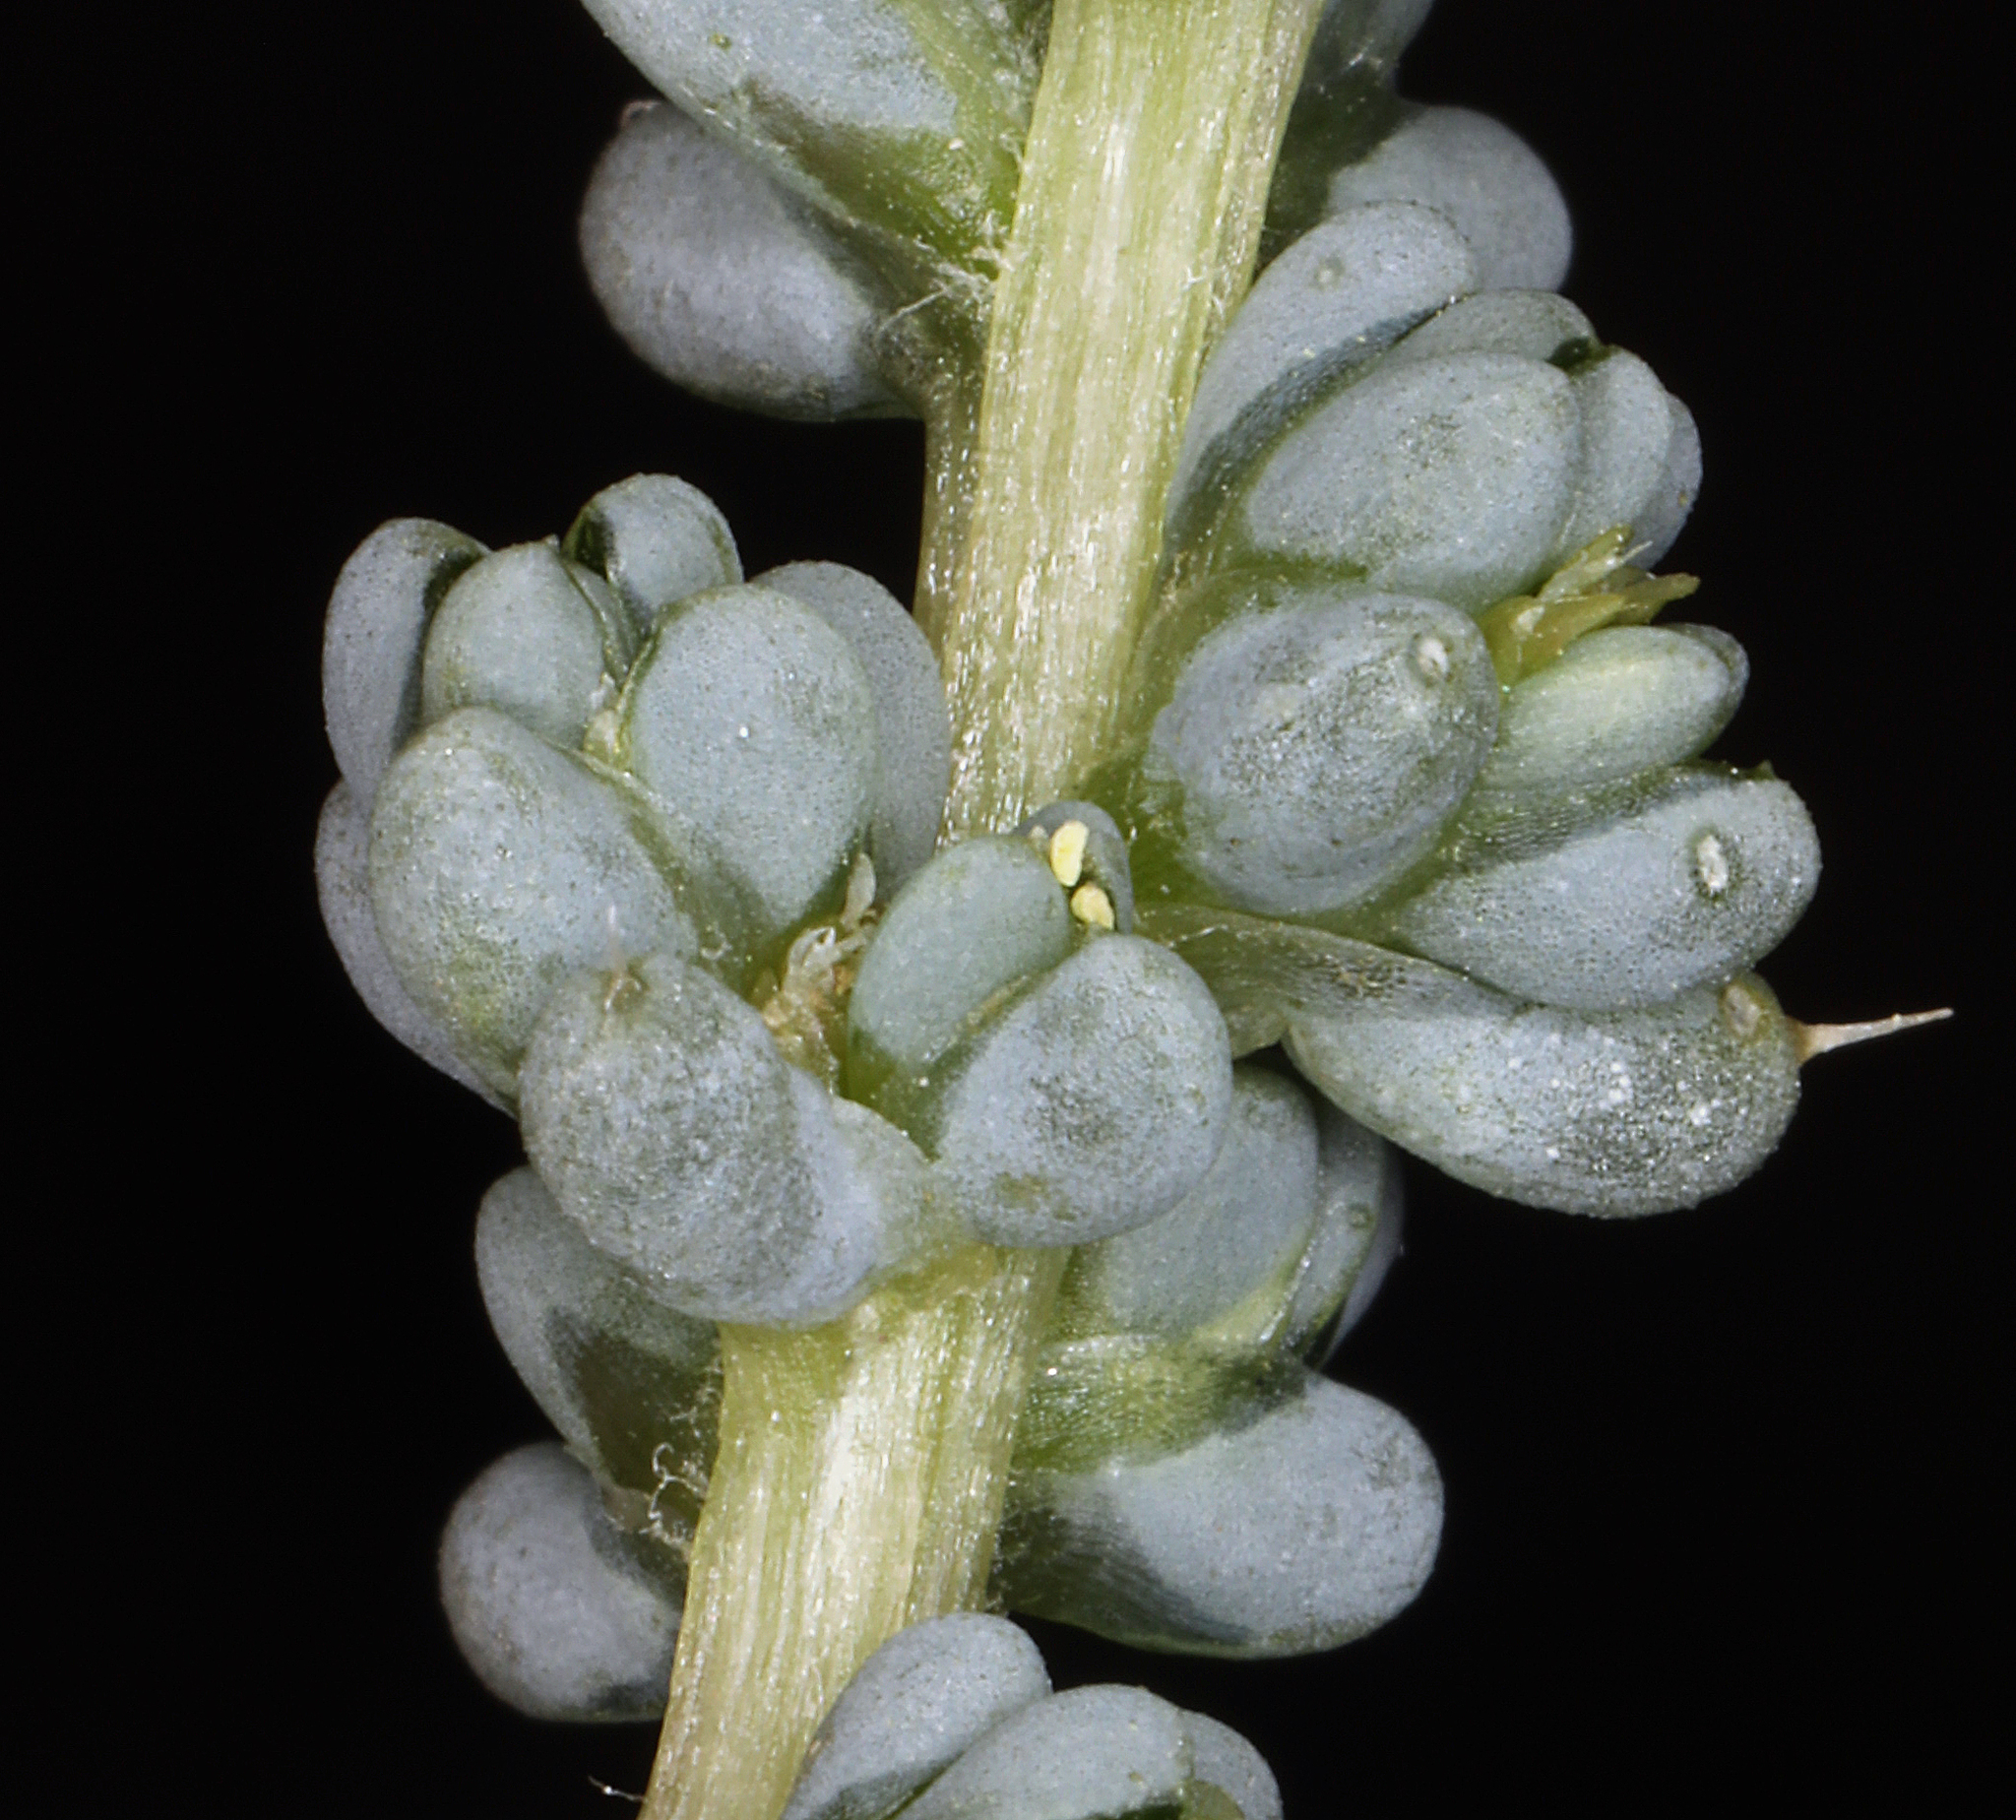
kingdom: Plantae
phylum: Tracheophyta
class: Magnoliopsida
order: Caryophyllales
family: Amaranthaceae
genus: Halogeton
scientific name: Halogeton glomeratus
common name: Saltlover
